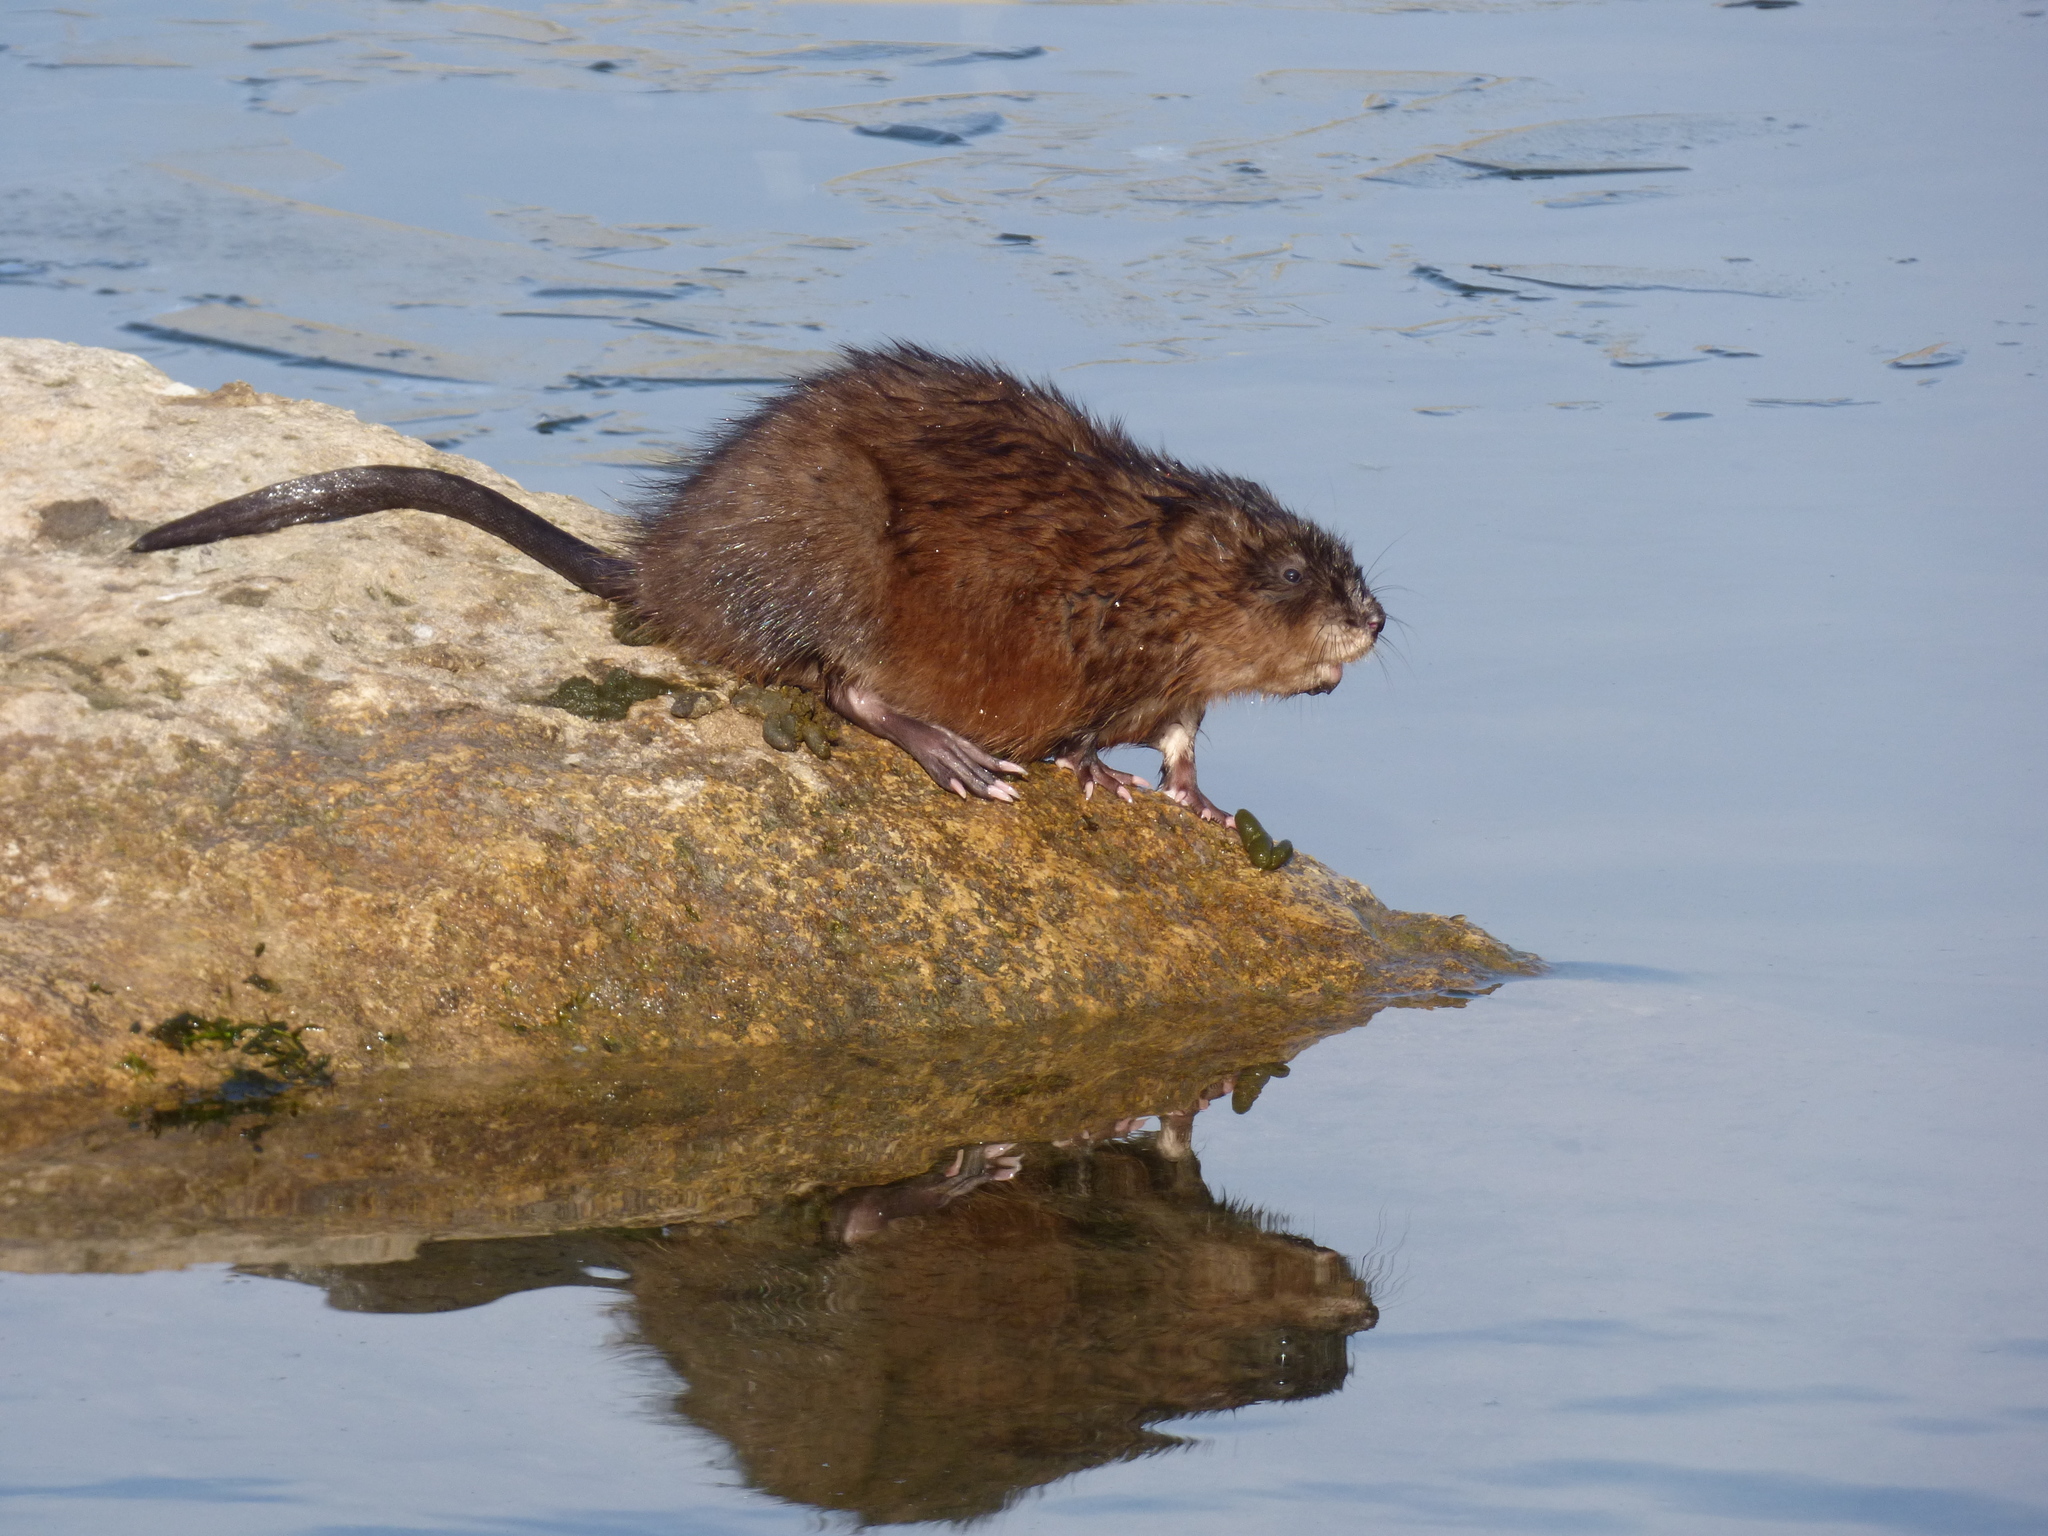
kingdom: Animalia
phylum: Chordata
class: Mammalia
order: Rodentia
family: Cricetidae
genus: Ondatra
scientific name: Ondatra zibethicus
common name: Muskrat
